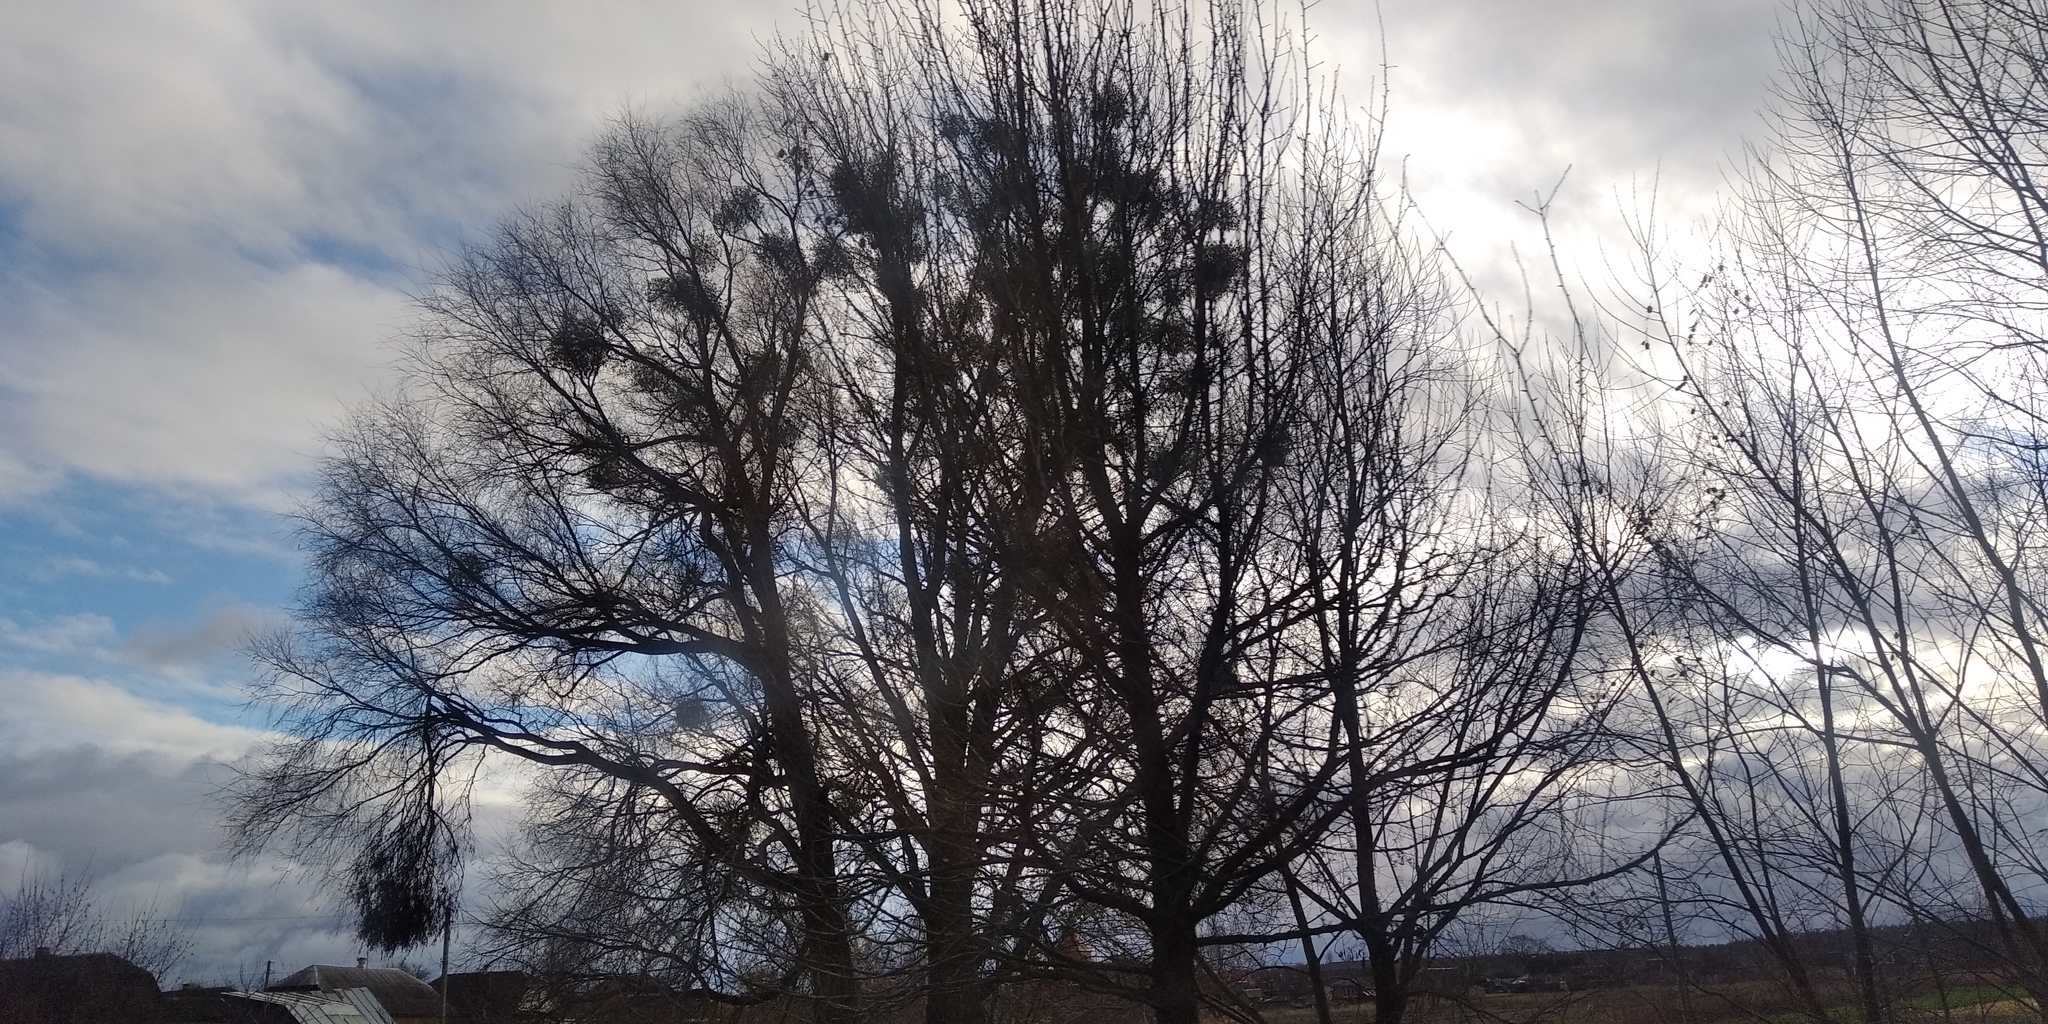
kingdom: Plantae
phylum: Tracheophyta
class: Magnoliopsida
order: Santalales
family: Viscaceae
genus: Viscum
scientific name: Viscum album
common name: Mistletoe
